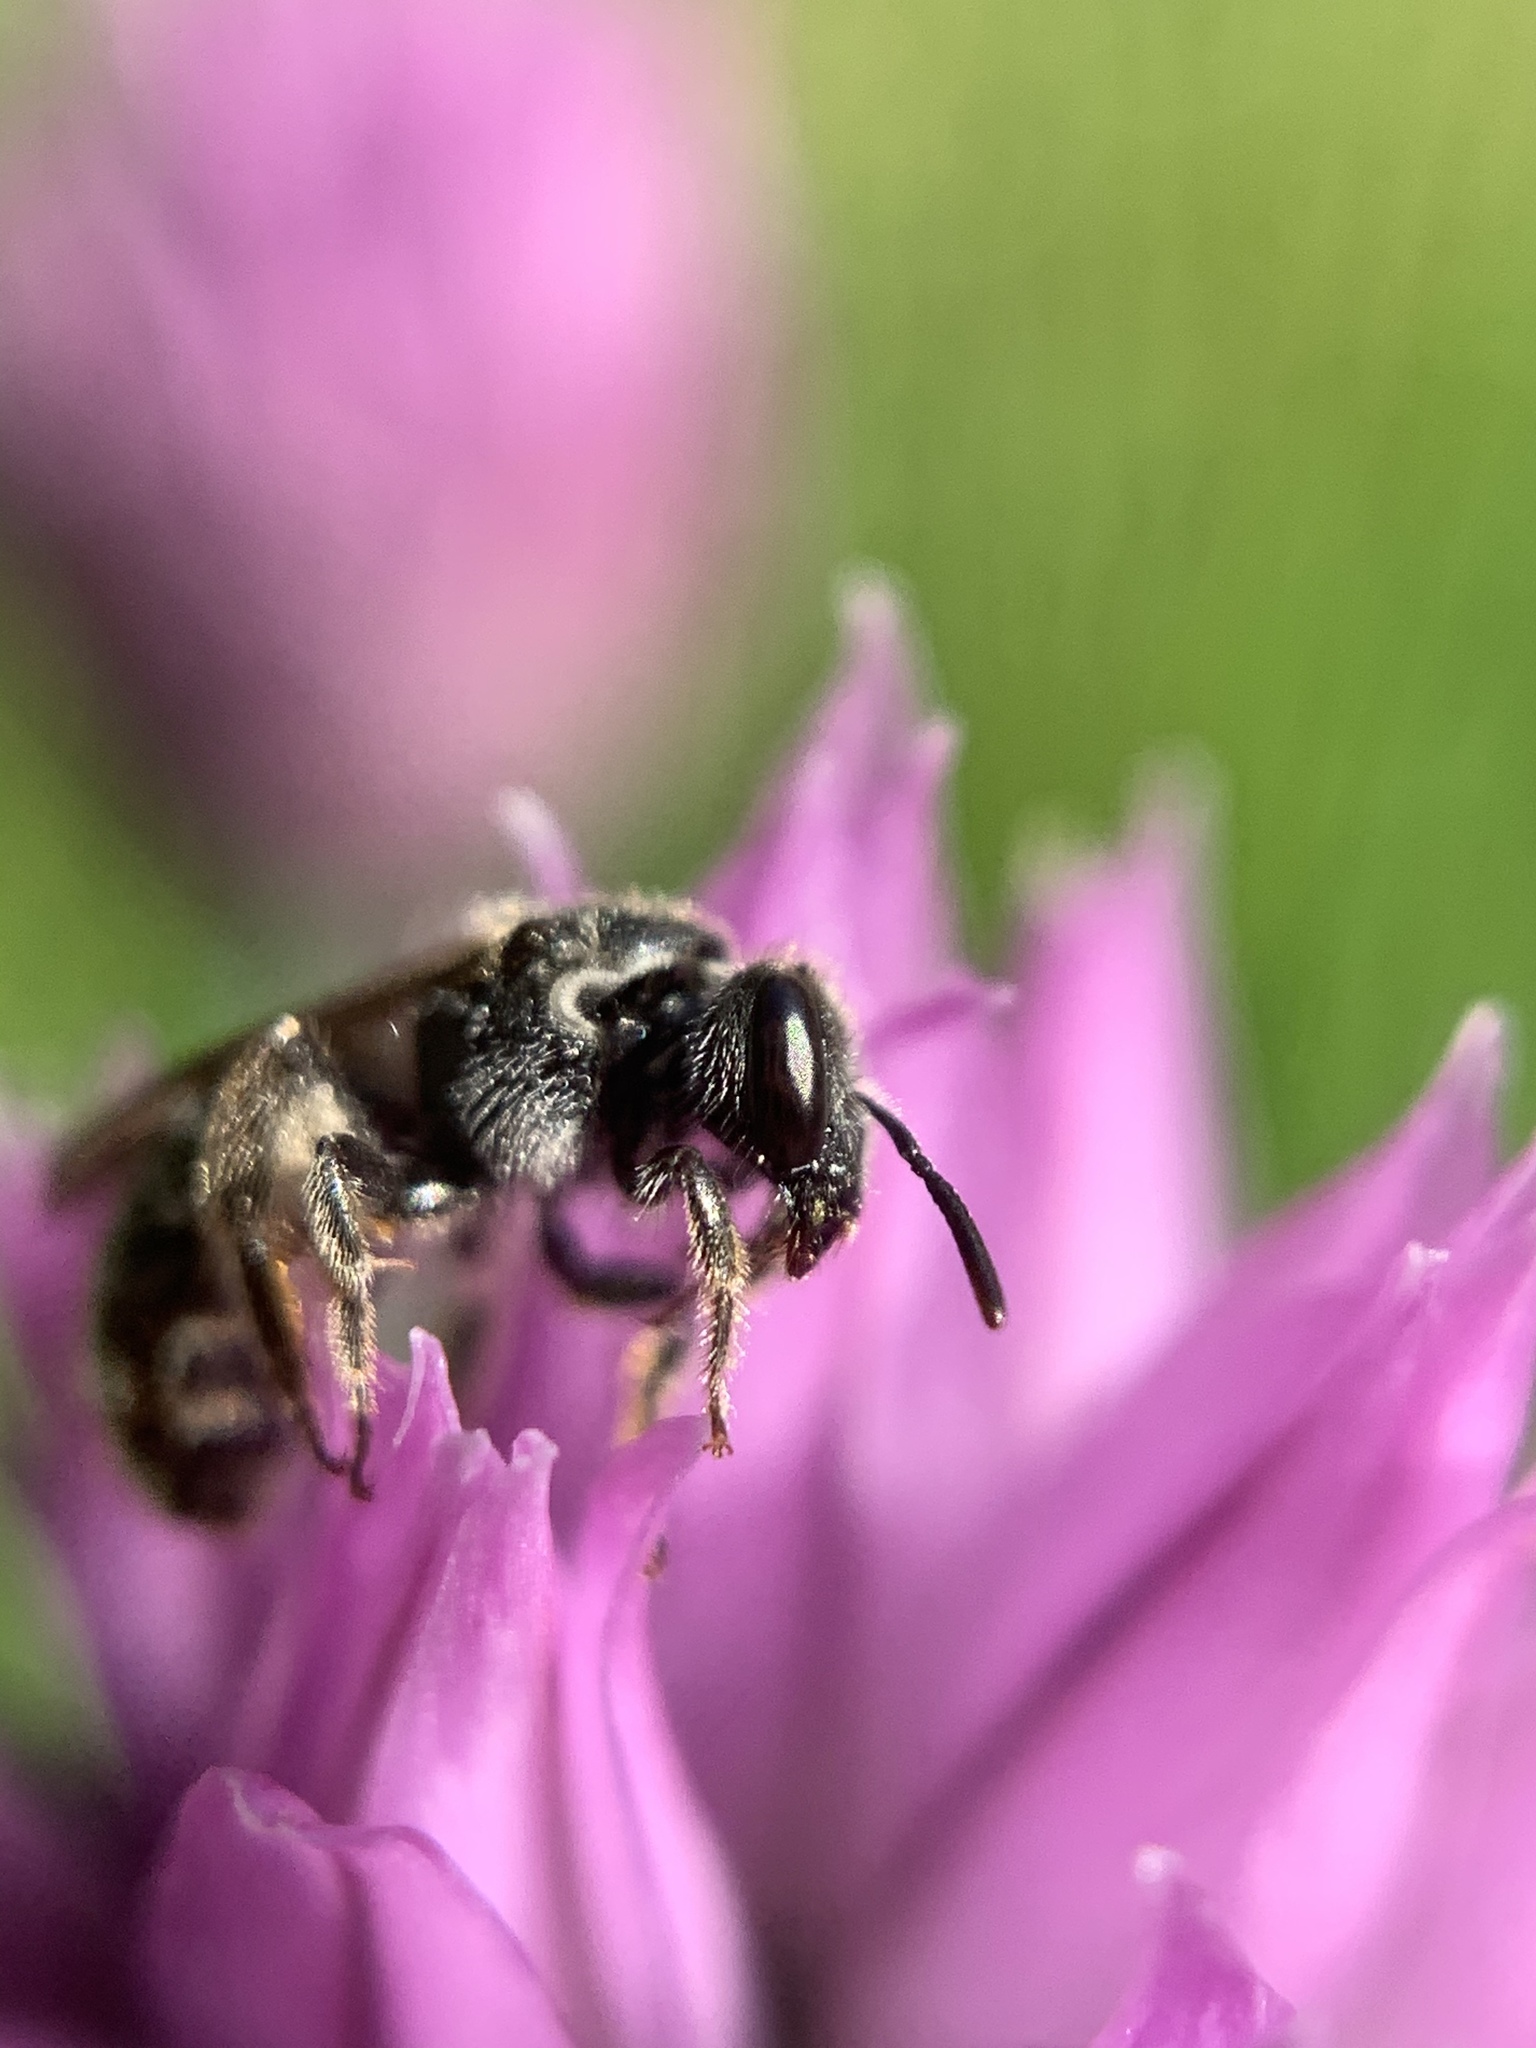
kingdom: Animalia
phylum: Arthropoda
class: Insecta
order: Hymenoptera
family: Halictidae
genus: Dialictus
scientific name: Dialictus
